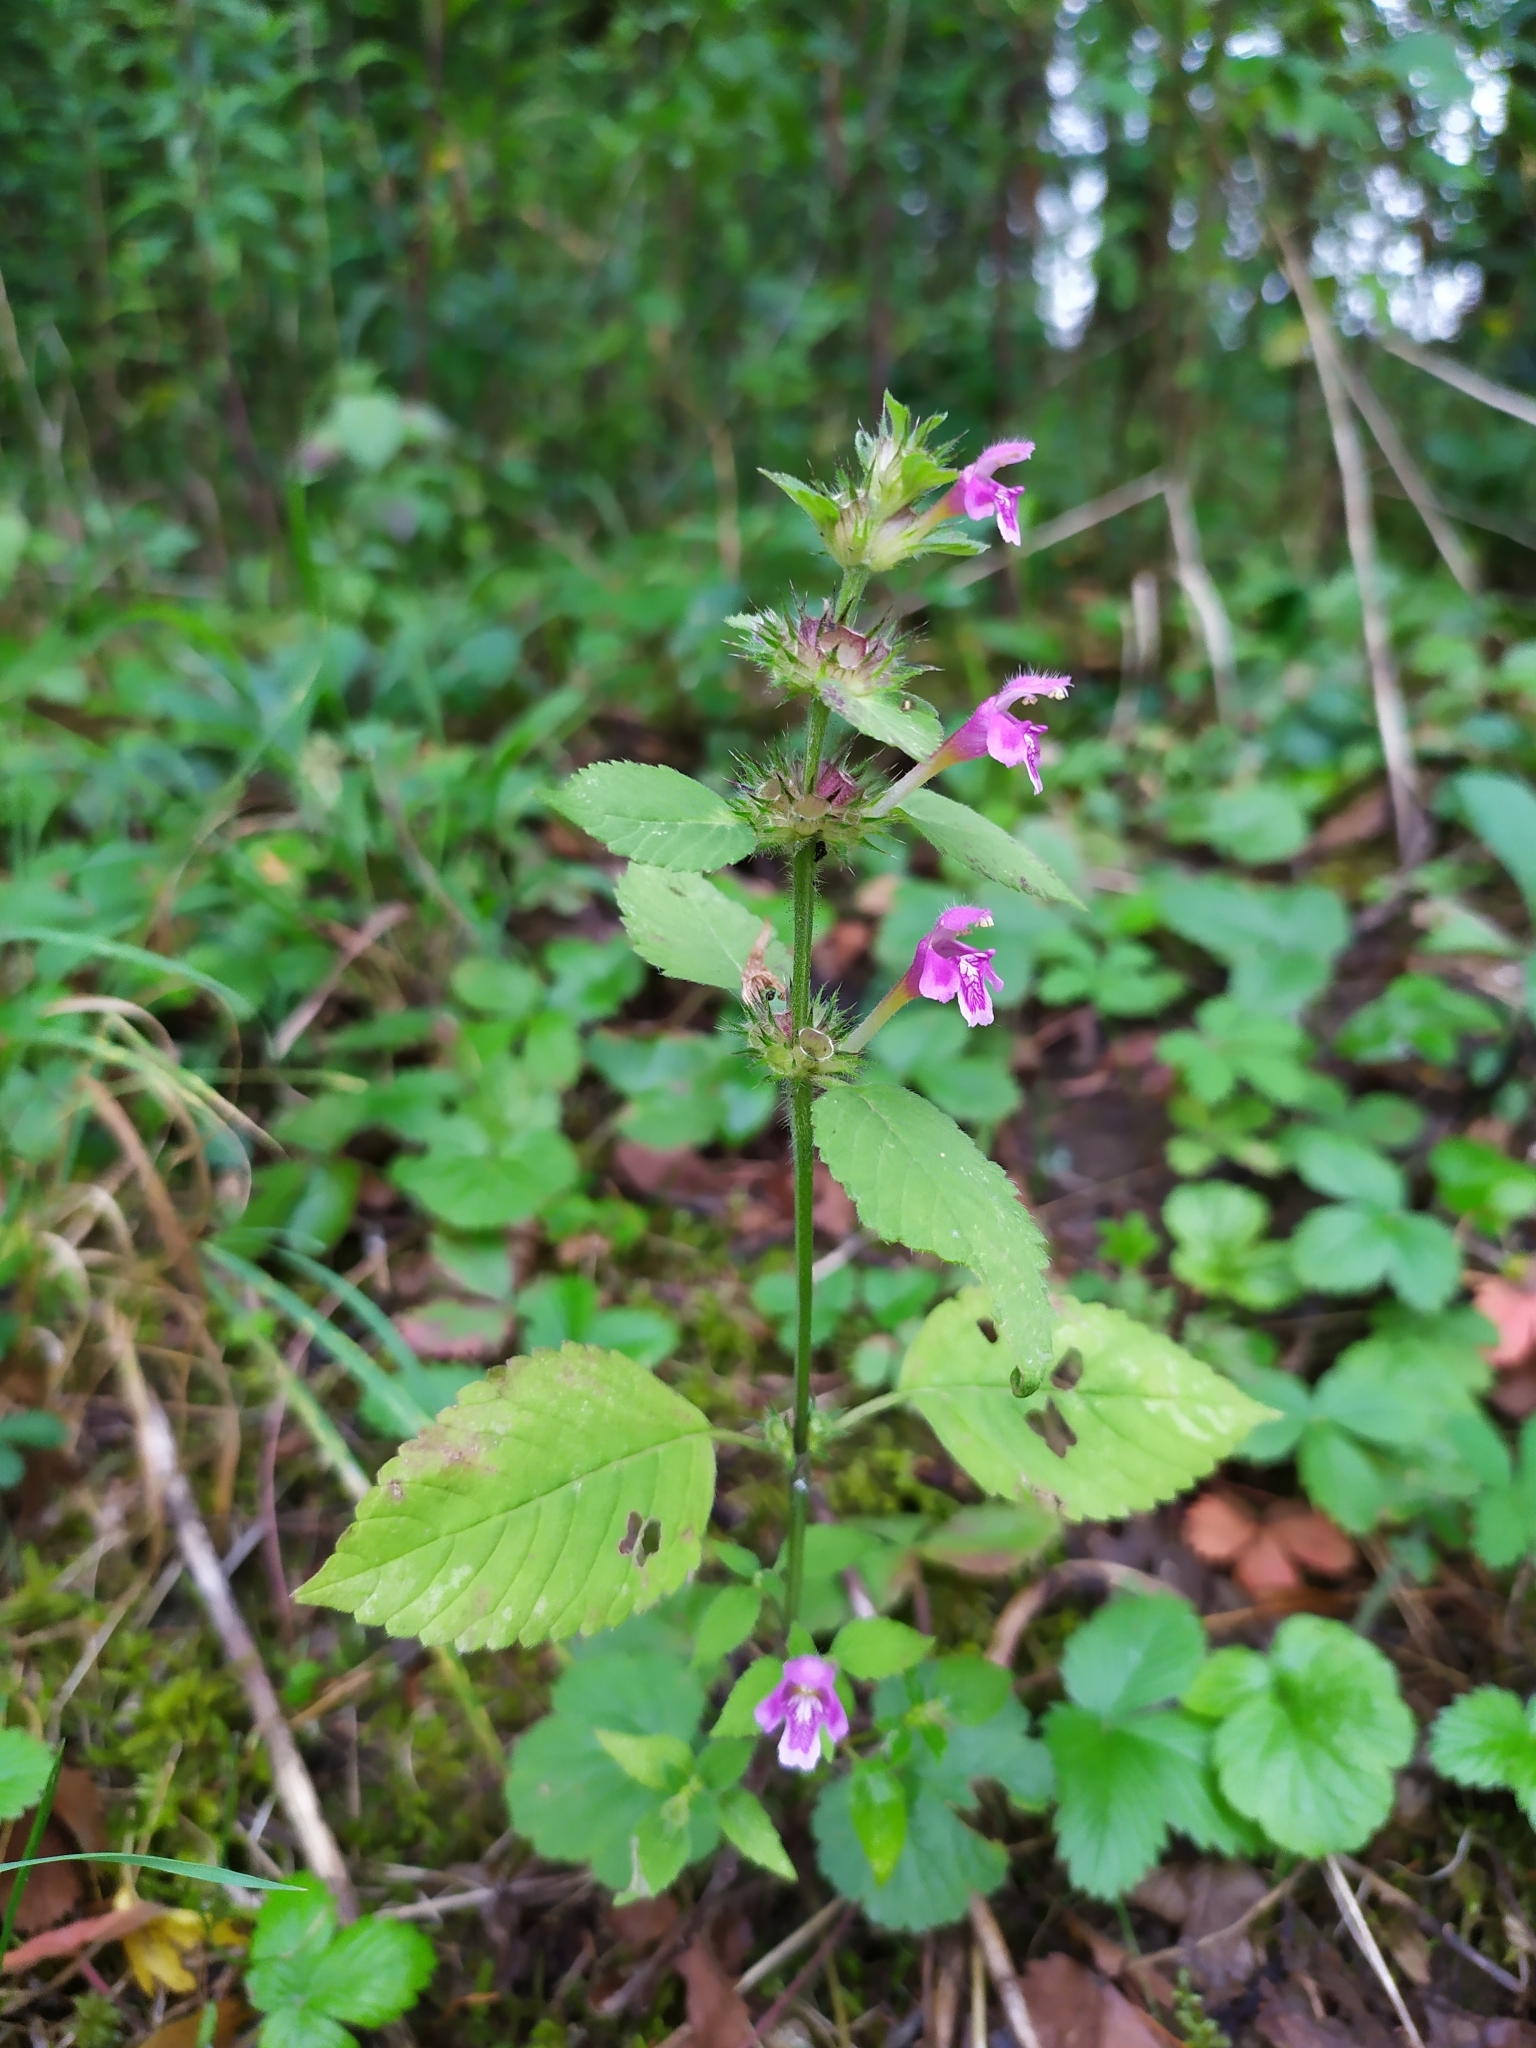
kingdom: Plantae
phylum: Tracheophyta
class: Magnoliopsida
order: Lamiales
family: Lamiaceae
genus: Galeopsis
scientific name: Galeopsis pubescens
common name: Downy hemp-nettle
